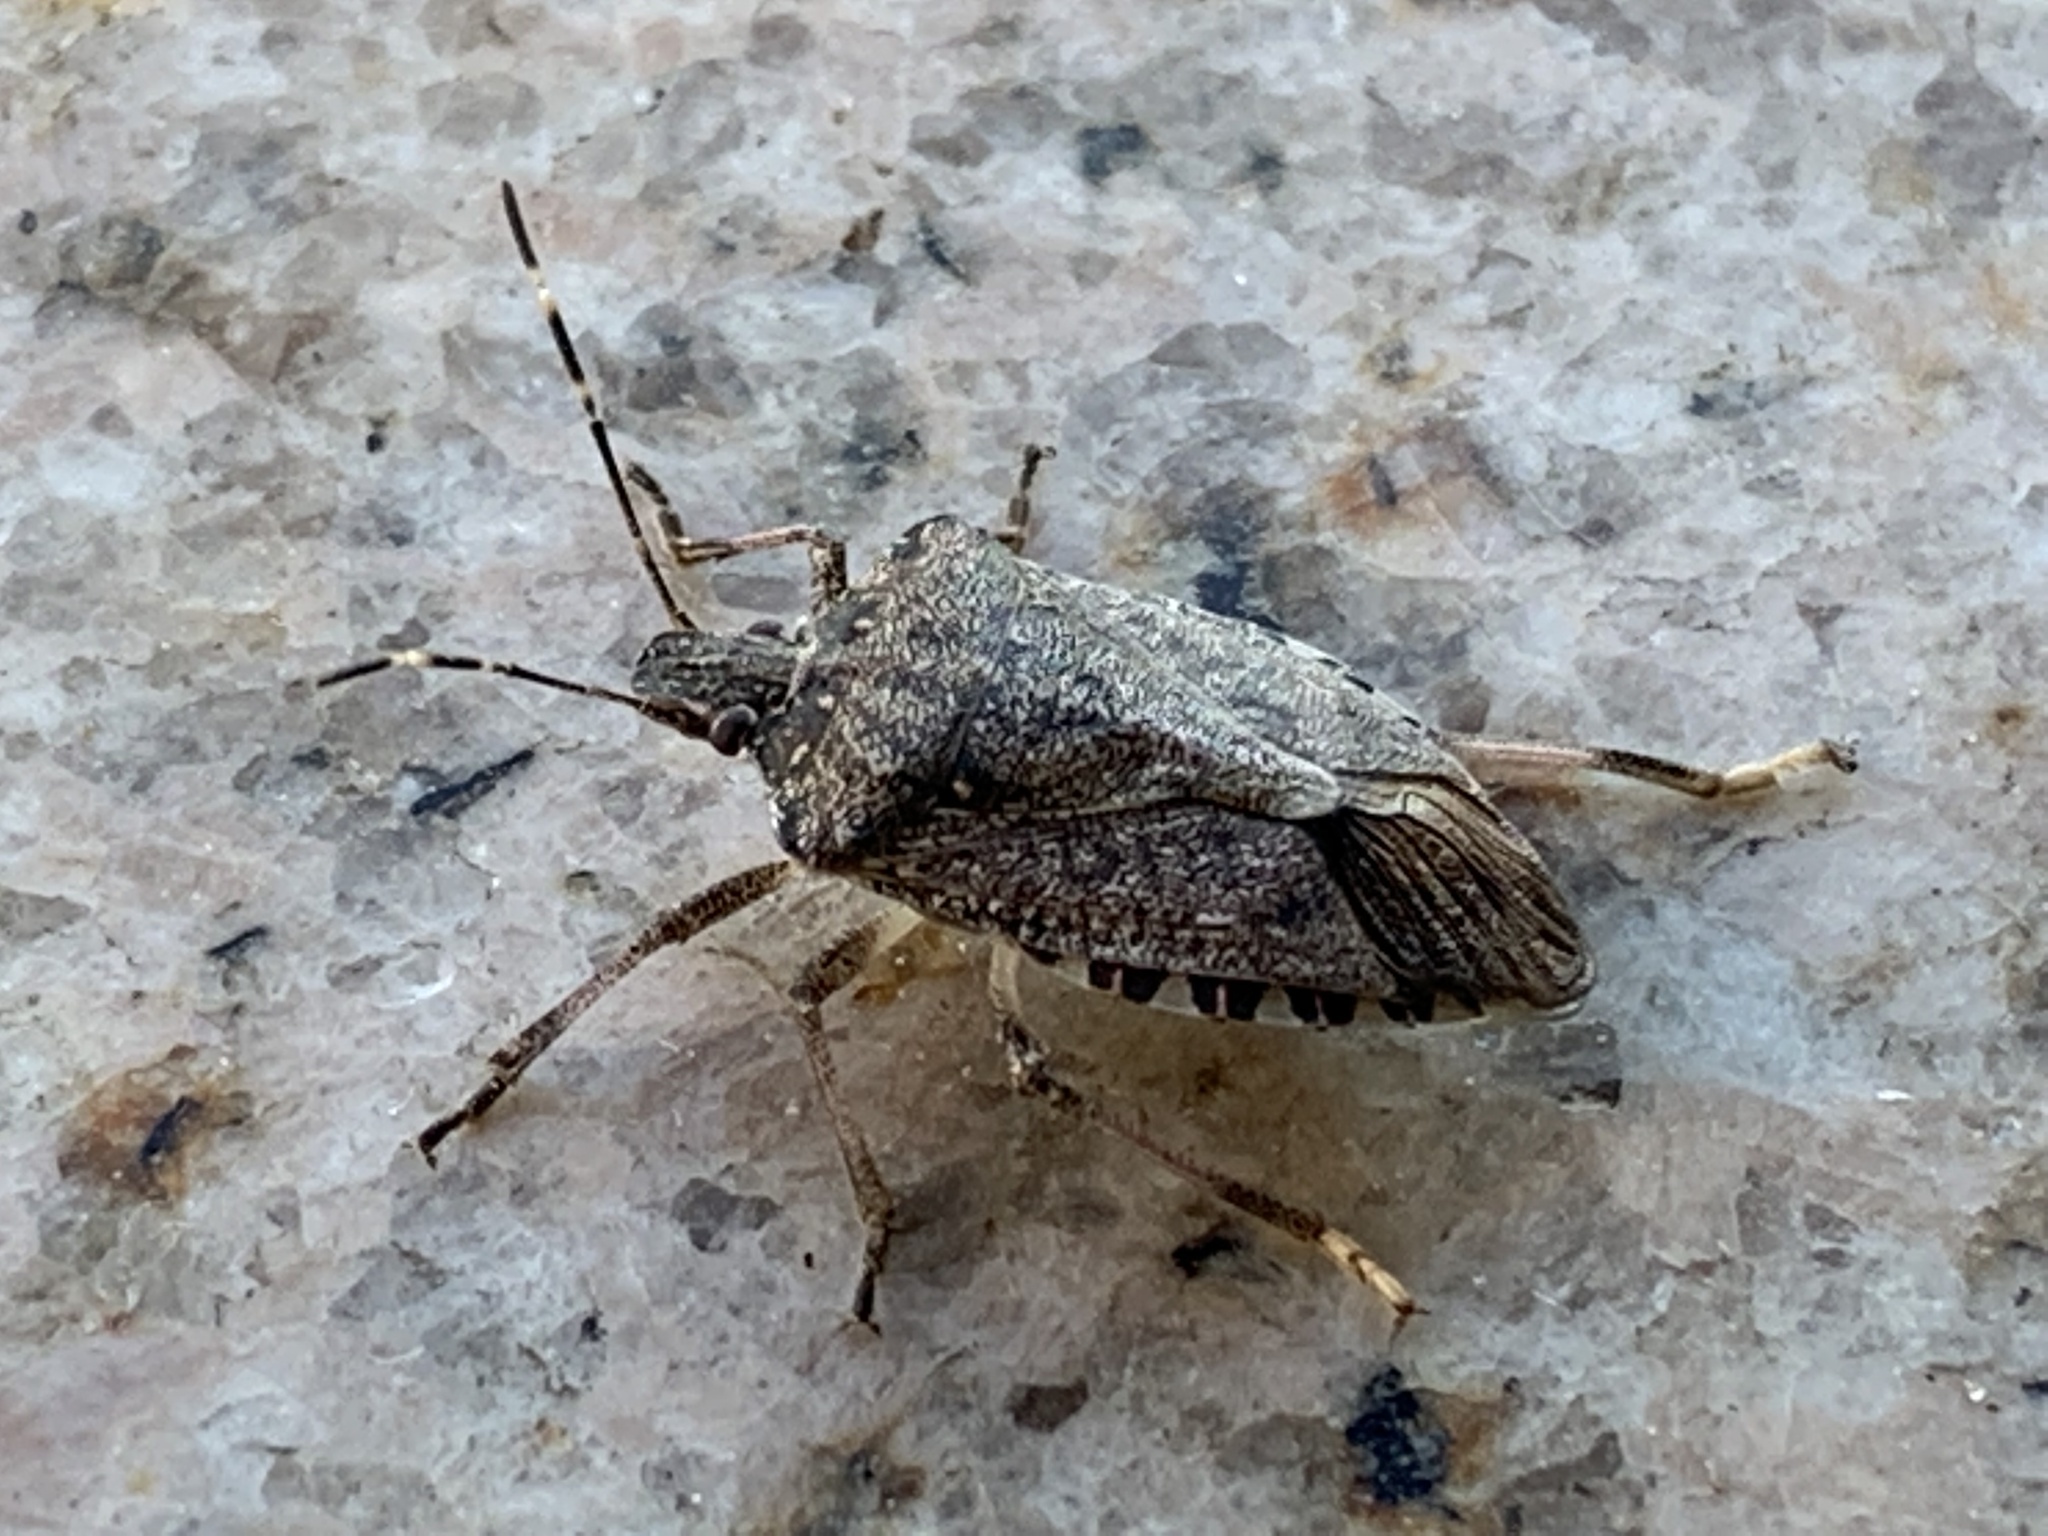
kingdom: Animalia
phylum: Arthropoda
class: Insecta
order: Hemiptera
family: Pentatomidae
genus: Halyomorpha
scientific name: Halyomorpha halys
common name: Brown marmorated stink bug
